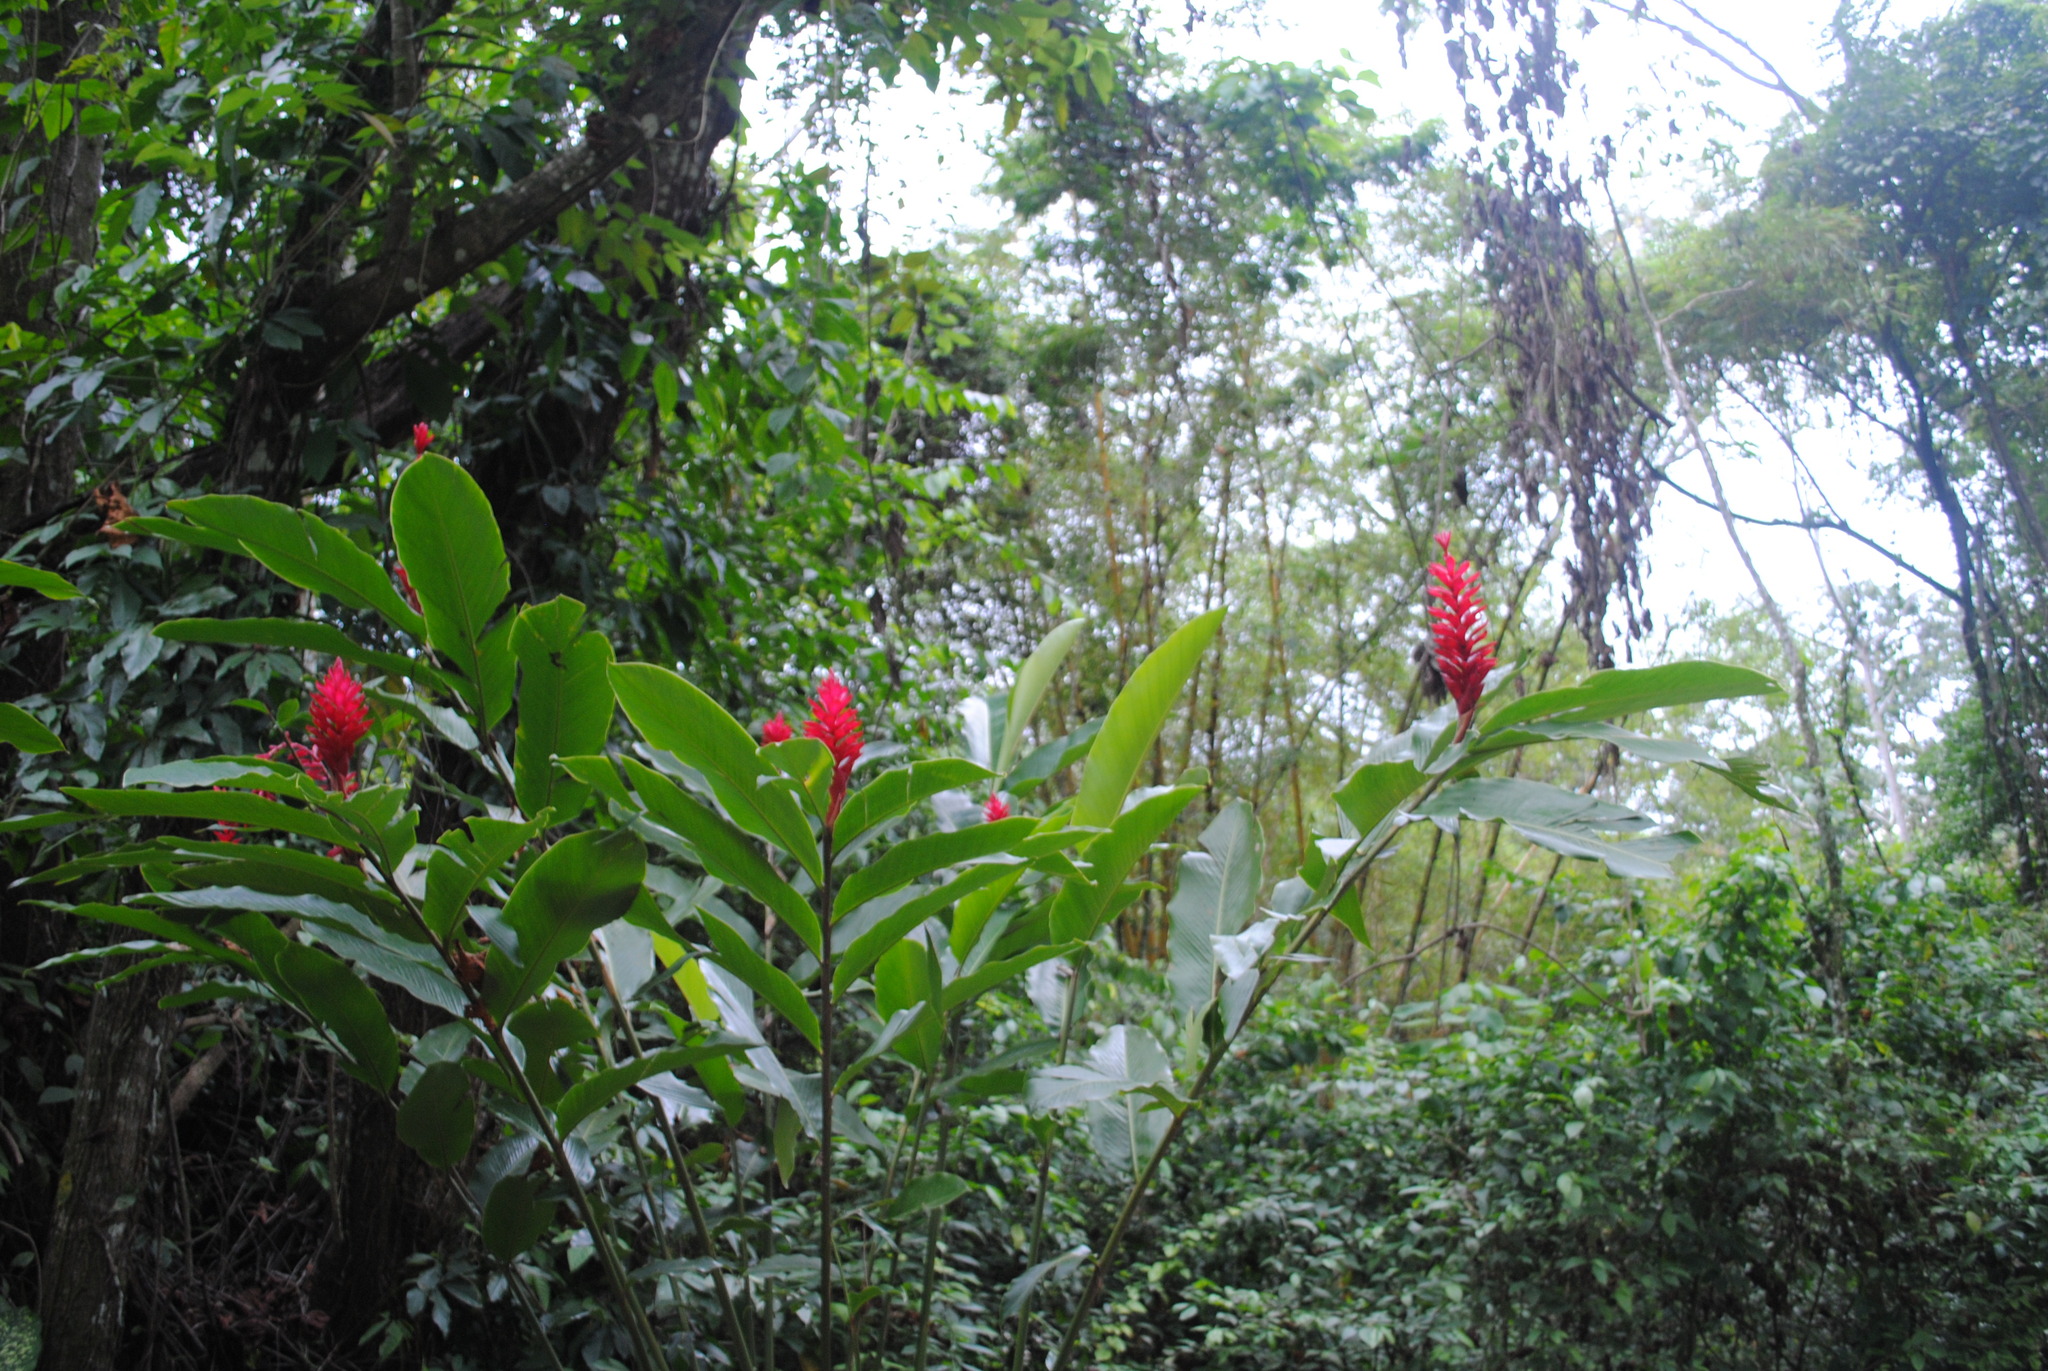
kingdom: Plantae
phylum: Tracheophyta
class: Liliopsida
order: Zingiberales
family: Zingiberaceae
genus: Alpinia
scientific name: Alpinia purpurata
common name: Red ginger
